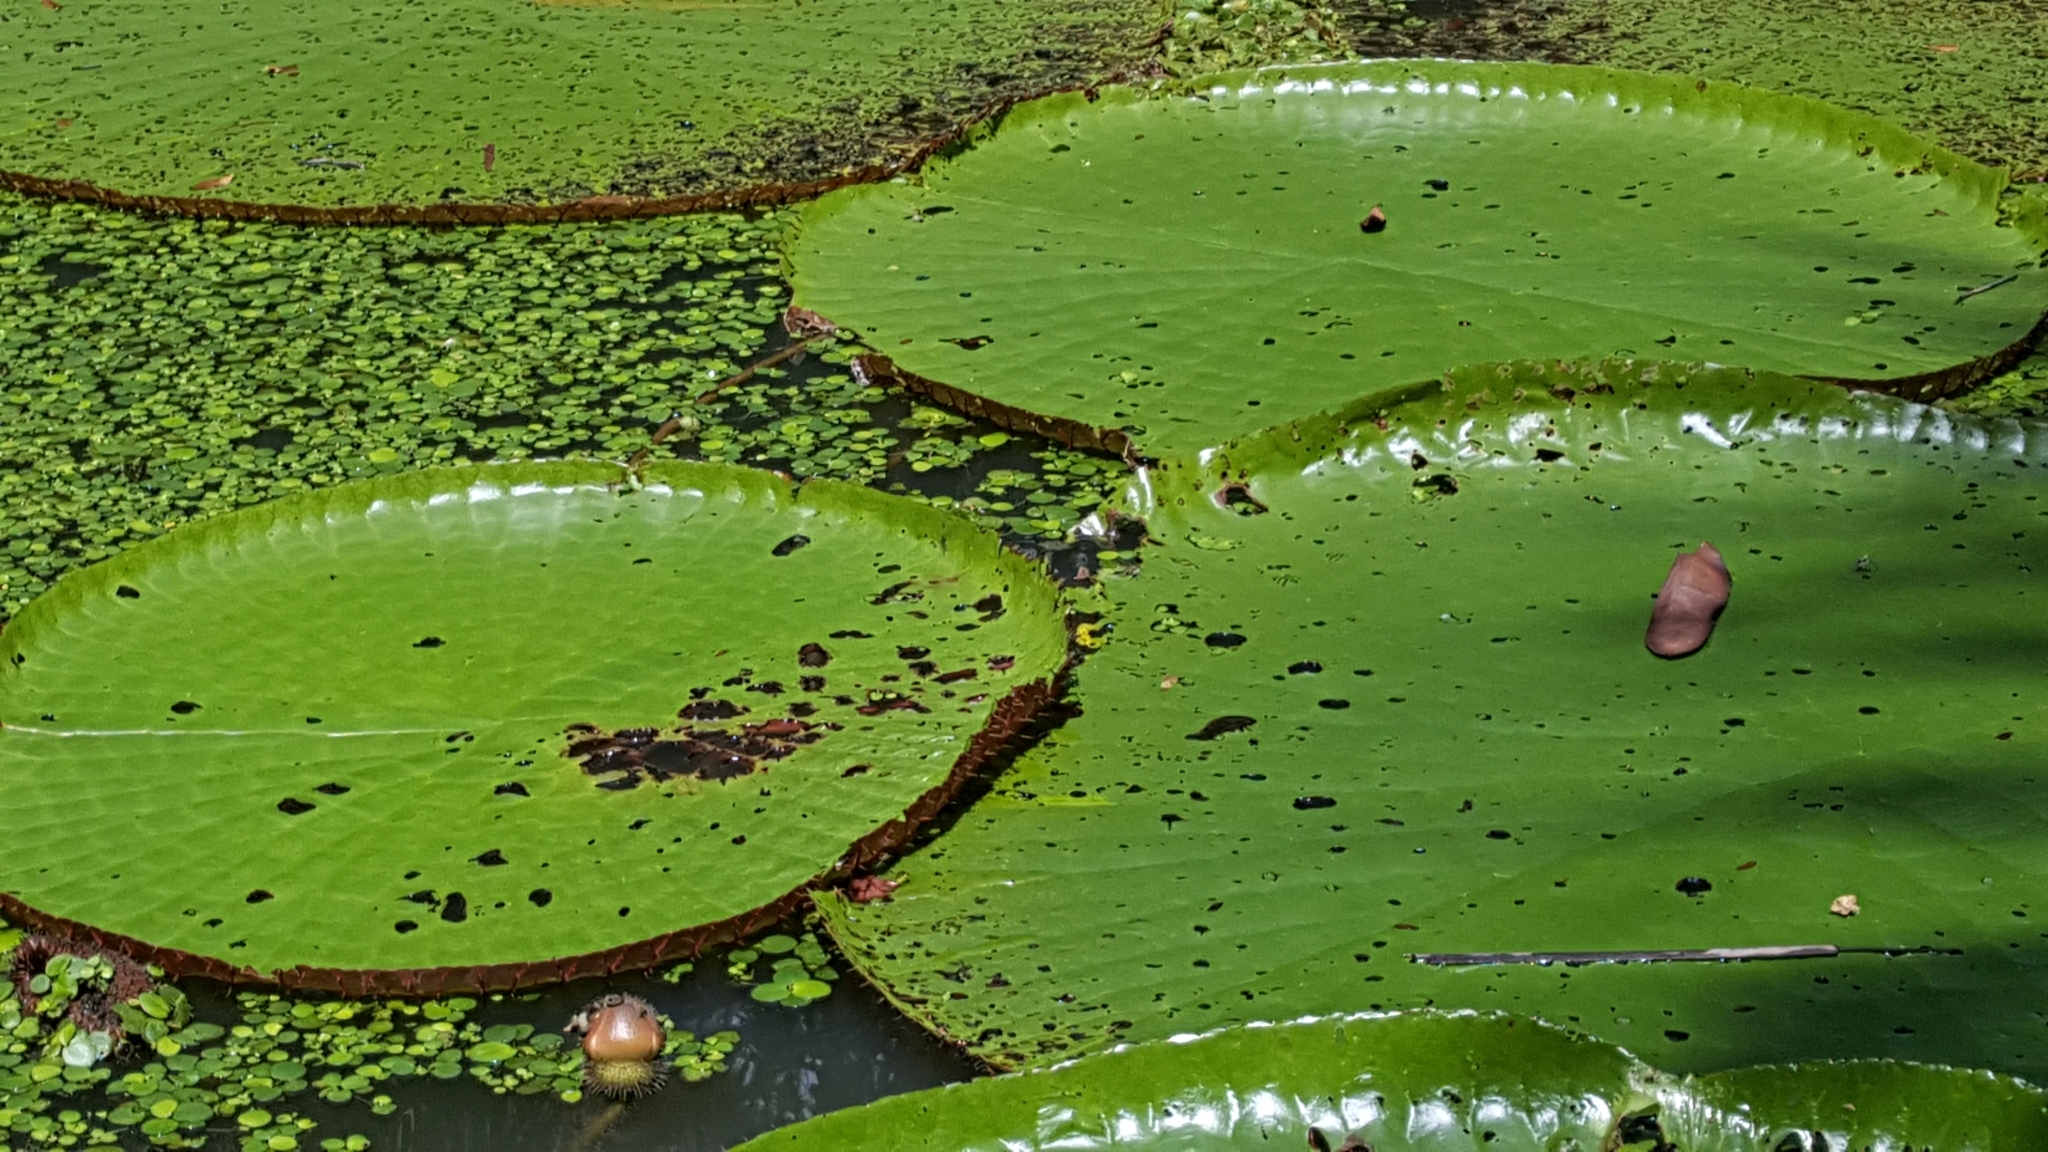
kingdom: Plantae
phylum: Tracheophyta
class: Magnoliopsida
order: Nymphaeales
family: Nymphaeaceae
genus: Victoria
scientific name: Victoria amazonica
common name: Amazon water-lily
